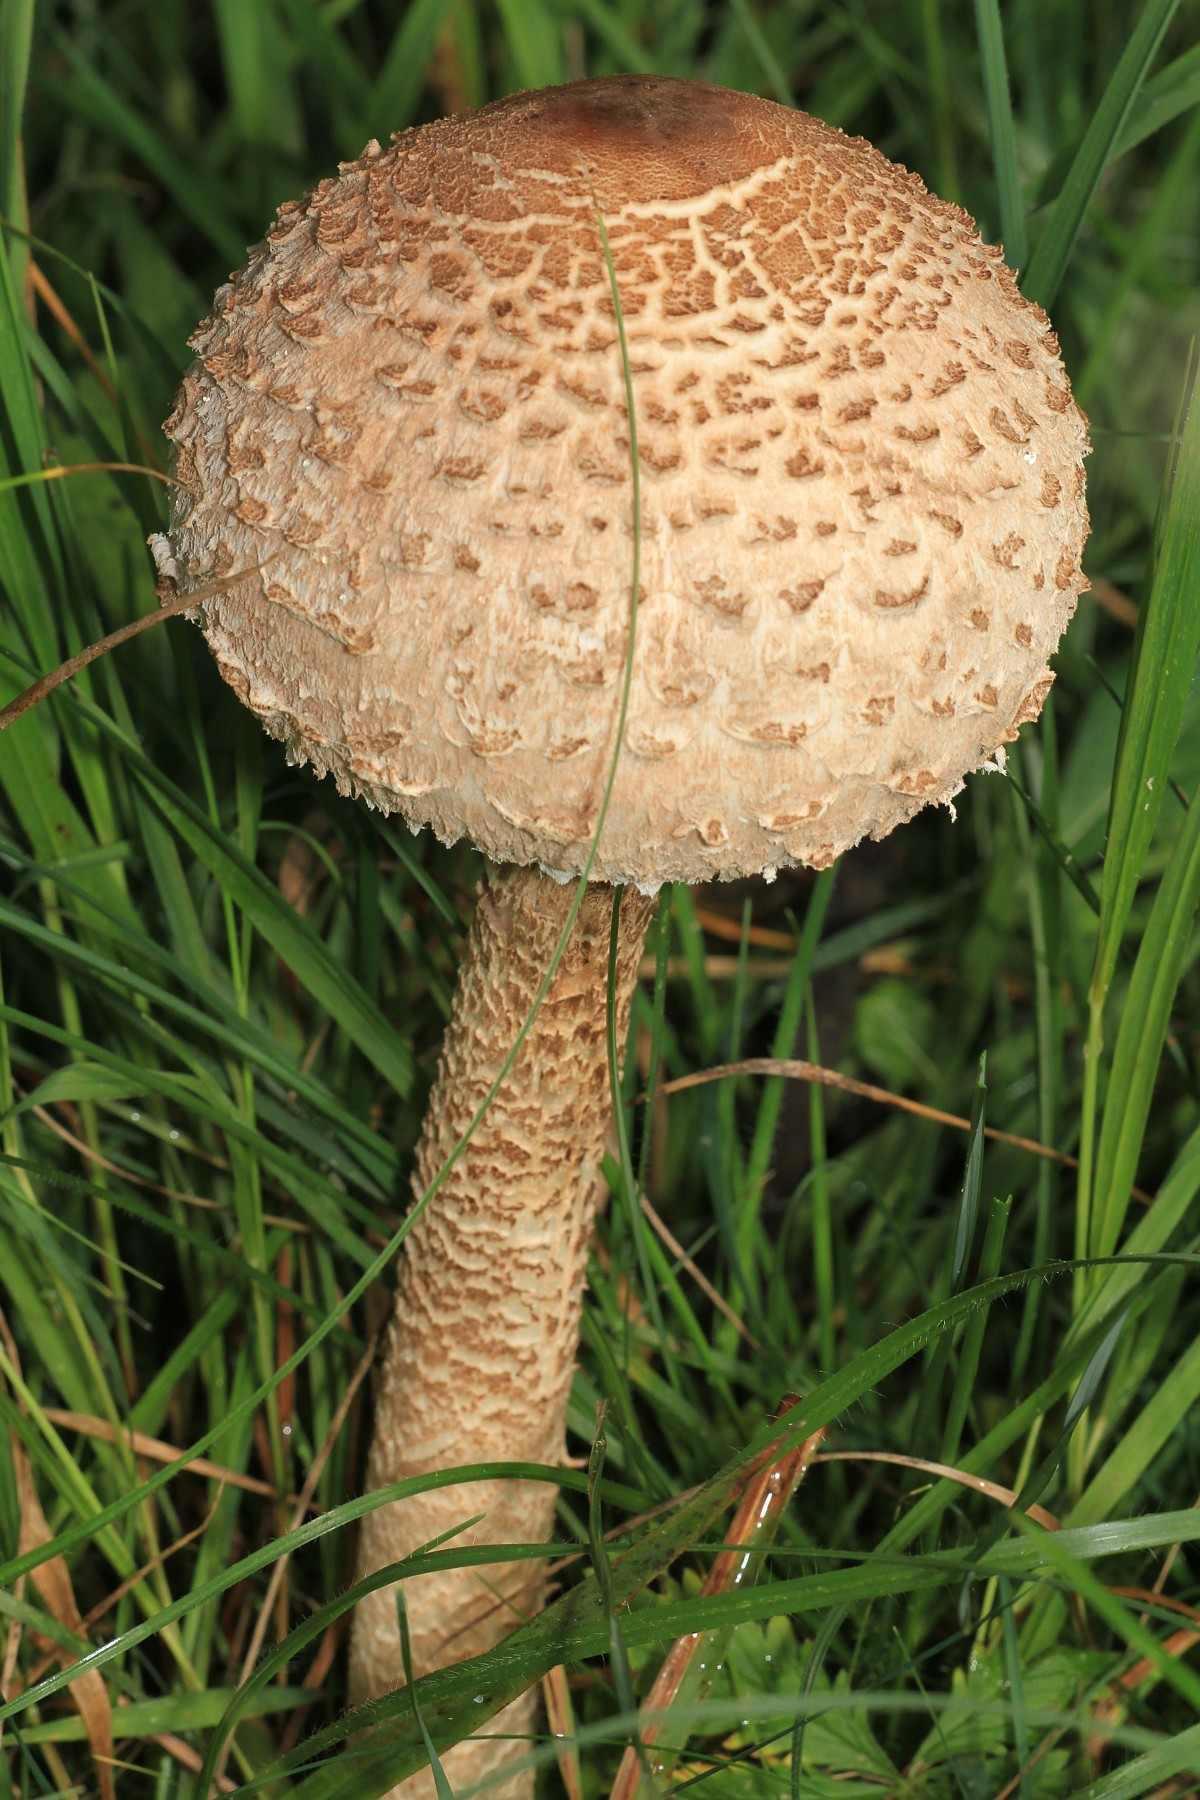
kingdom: Fungi
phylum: Basidiomycota
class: Agaricomycetes
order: Agaricales
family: Agaricaceae
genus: Macrolepiota
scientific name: Macrolepiota procera
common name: Parasol
